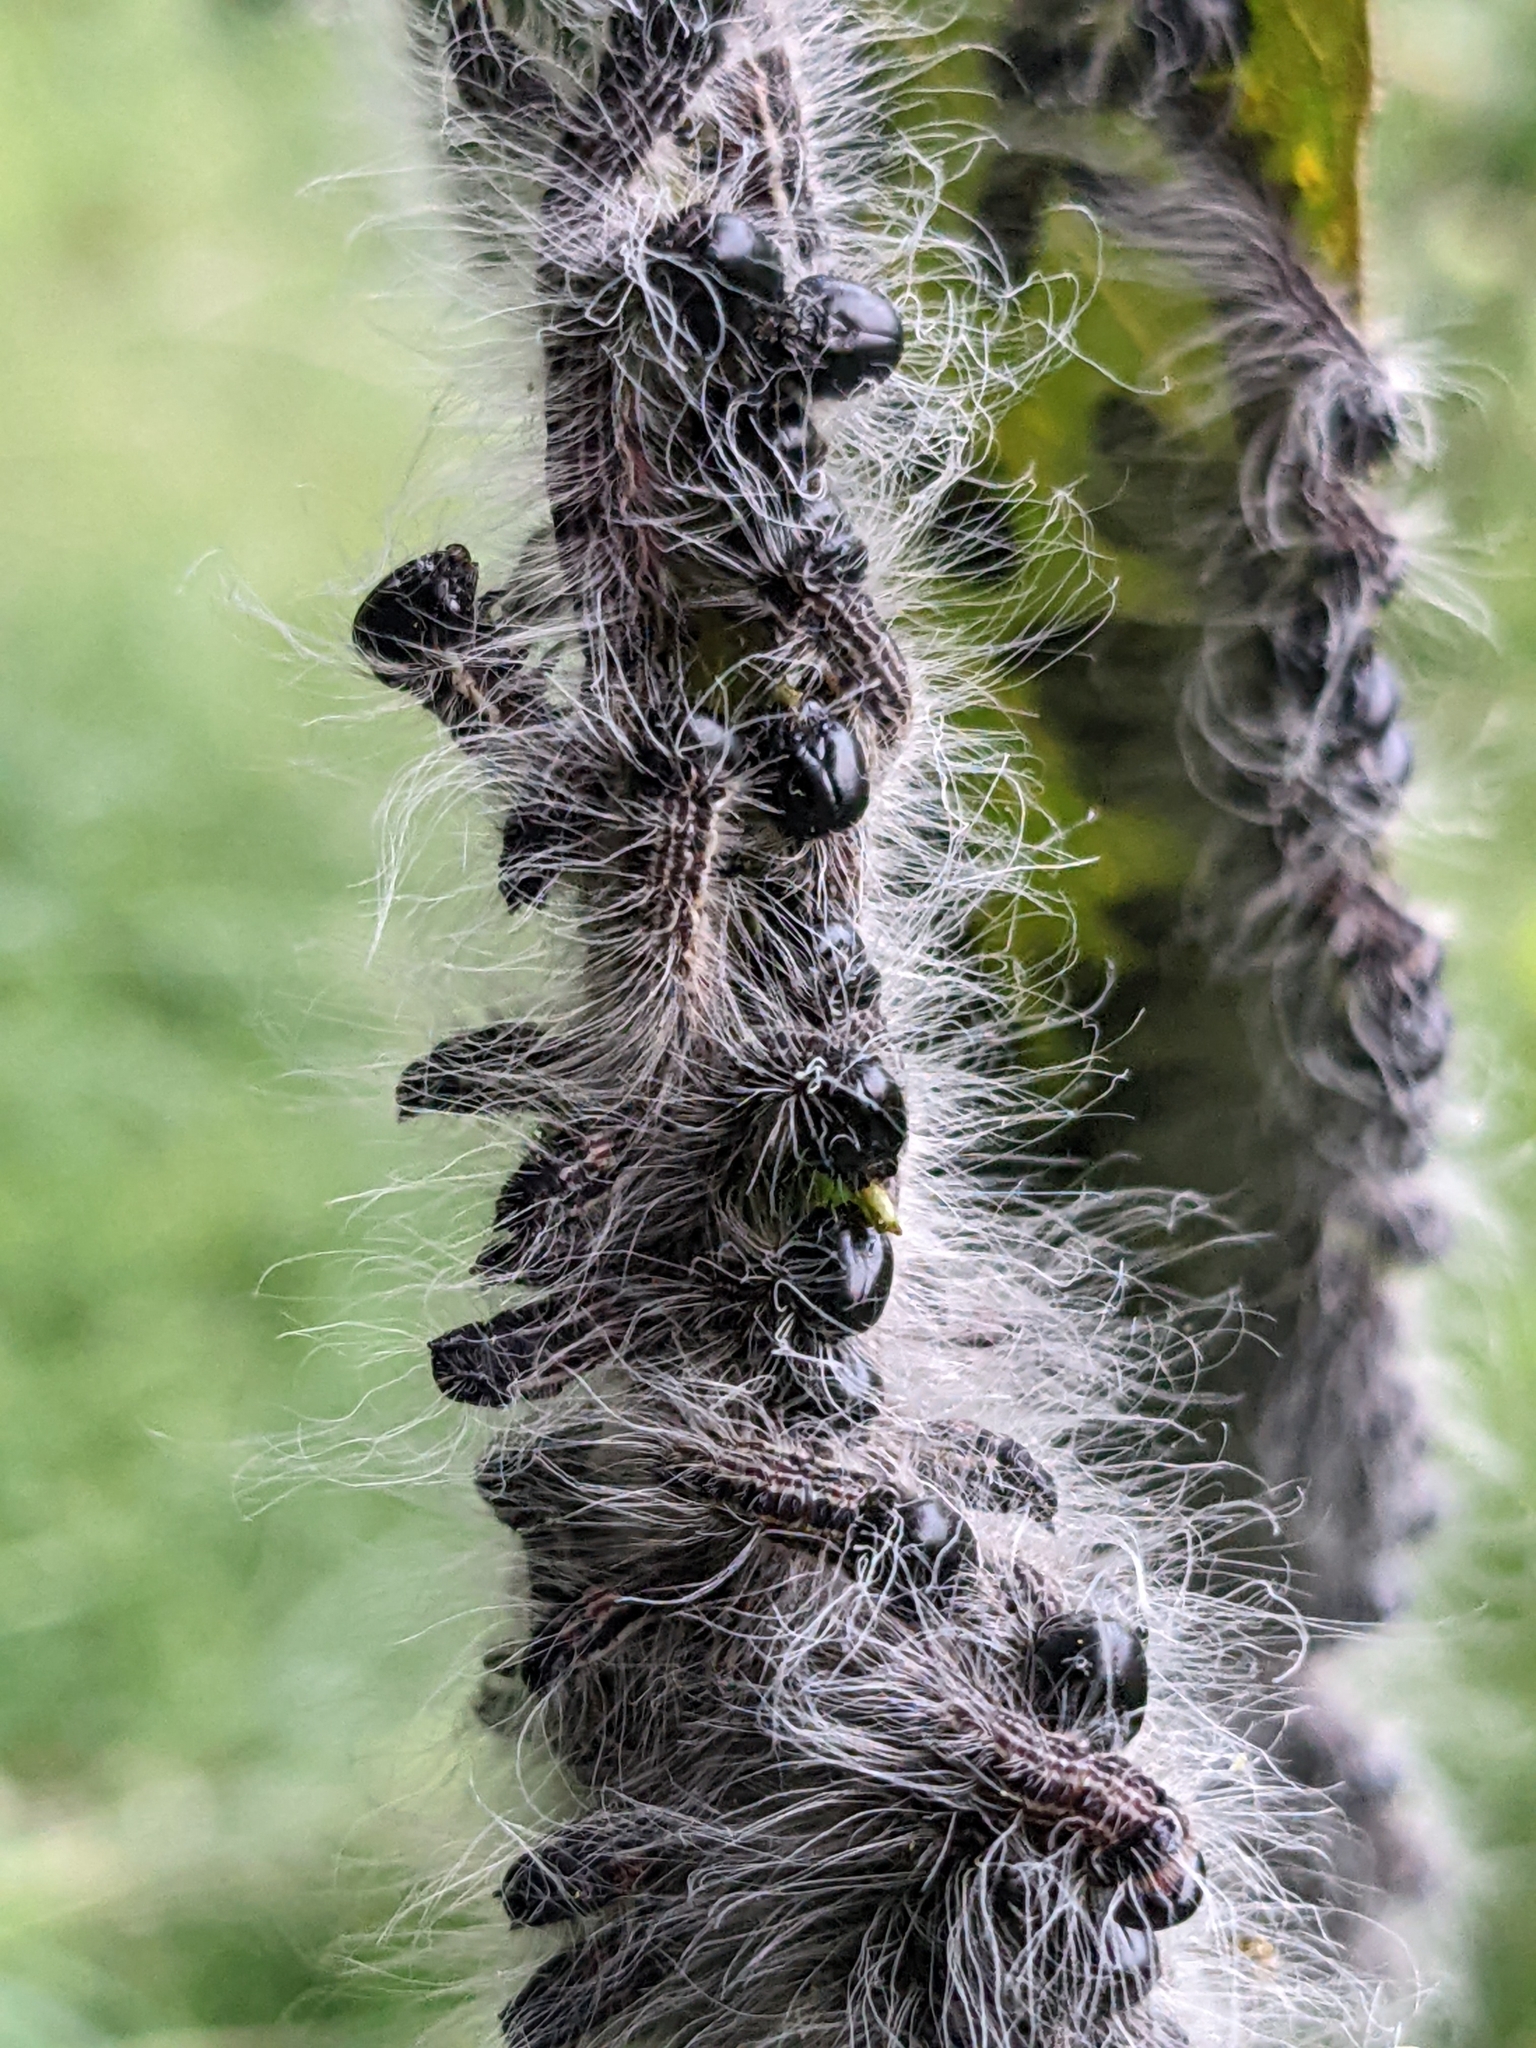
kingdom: Animalia
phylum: Arthropoda
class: Insecta
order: Lepidoptera
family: Notodontidae
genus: Datana
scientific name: Datana integerrima
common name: Walnut caterpillar
